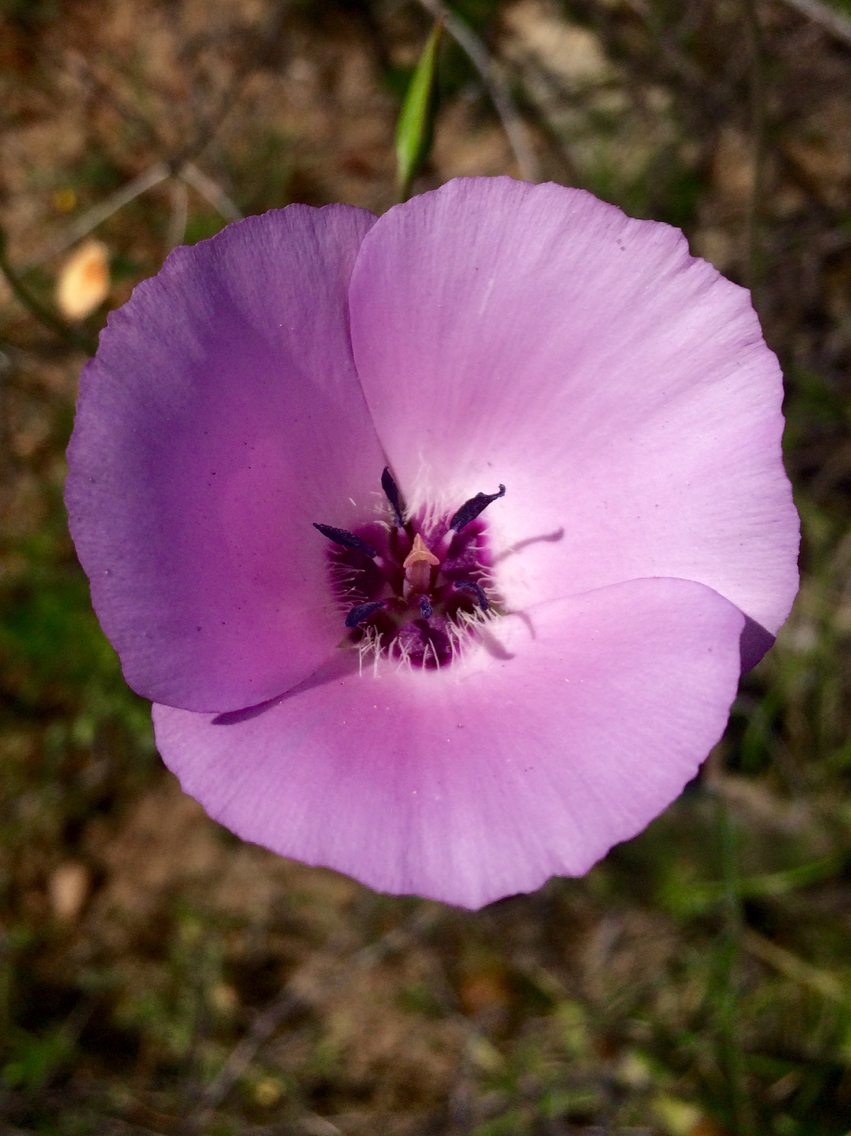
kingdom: Plantae
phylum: Tracheophyta
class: Liliopsida
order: Liliales
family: Liliaceae
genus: Calochortus
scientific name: Calochortus splendens
